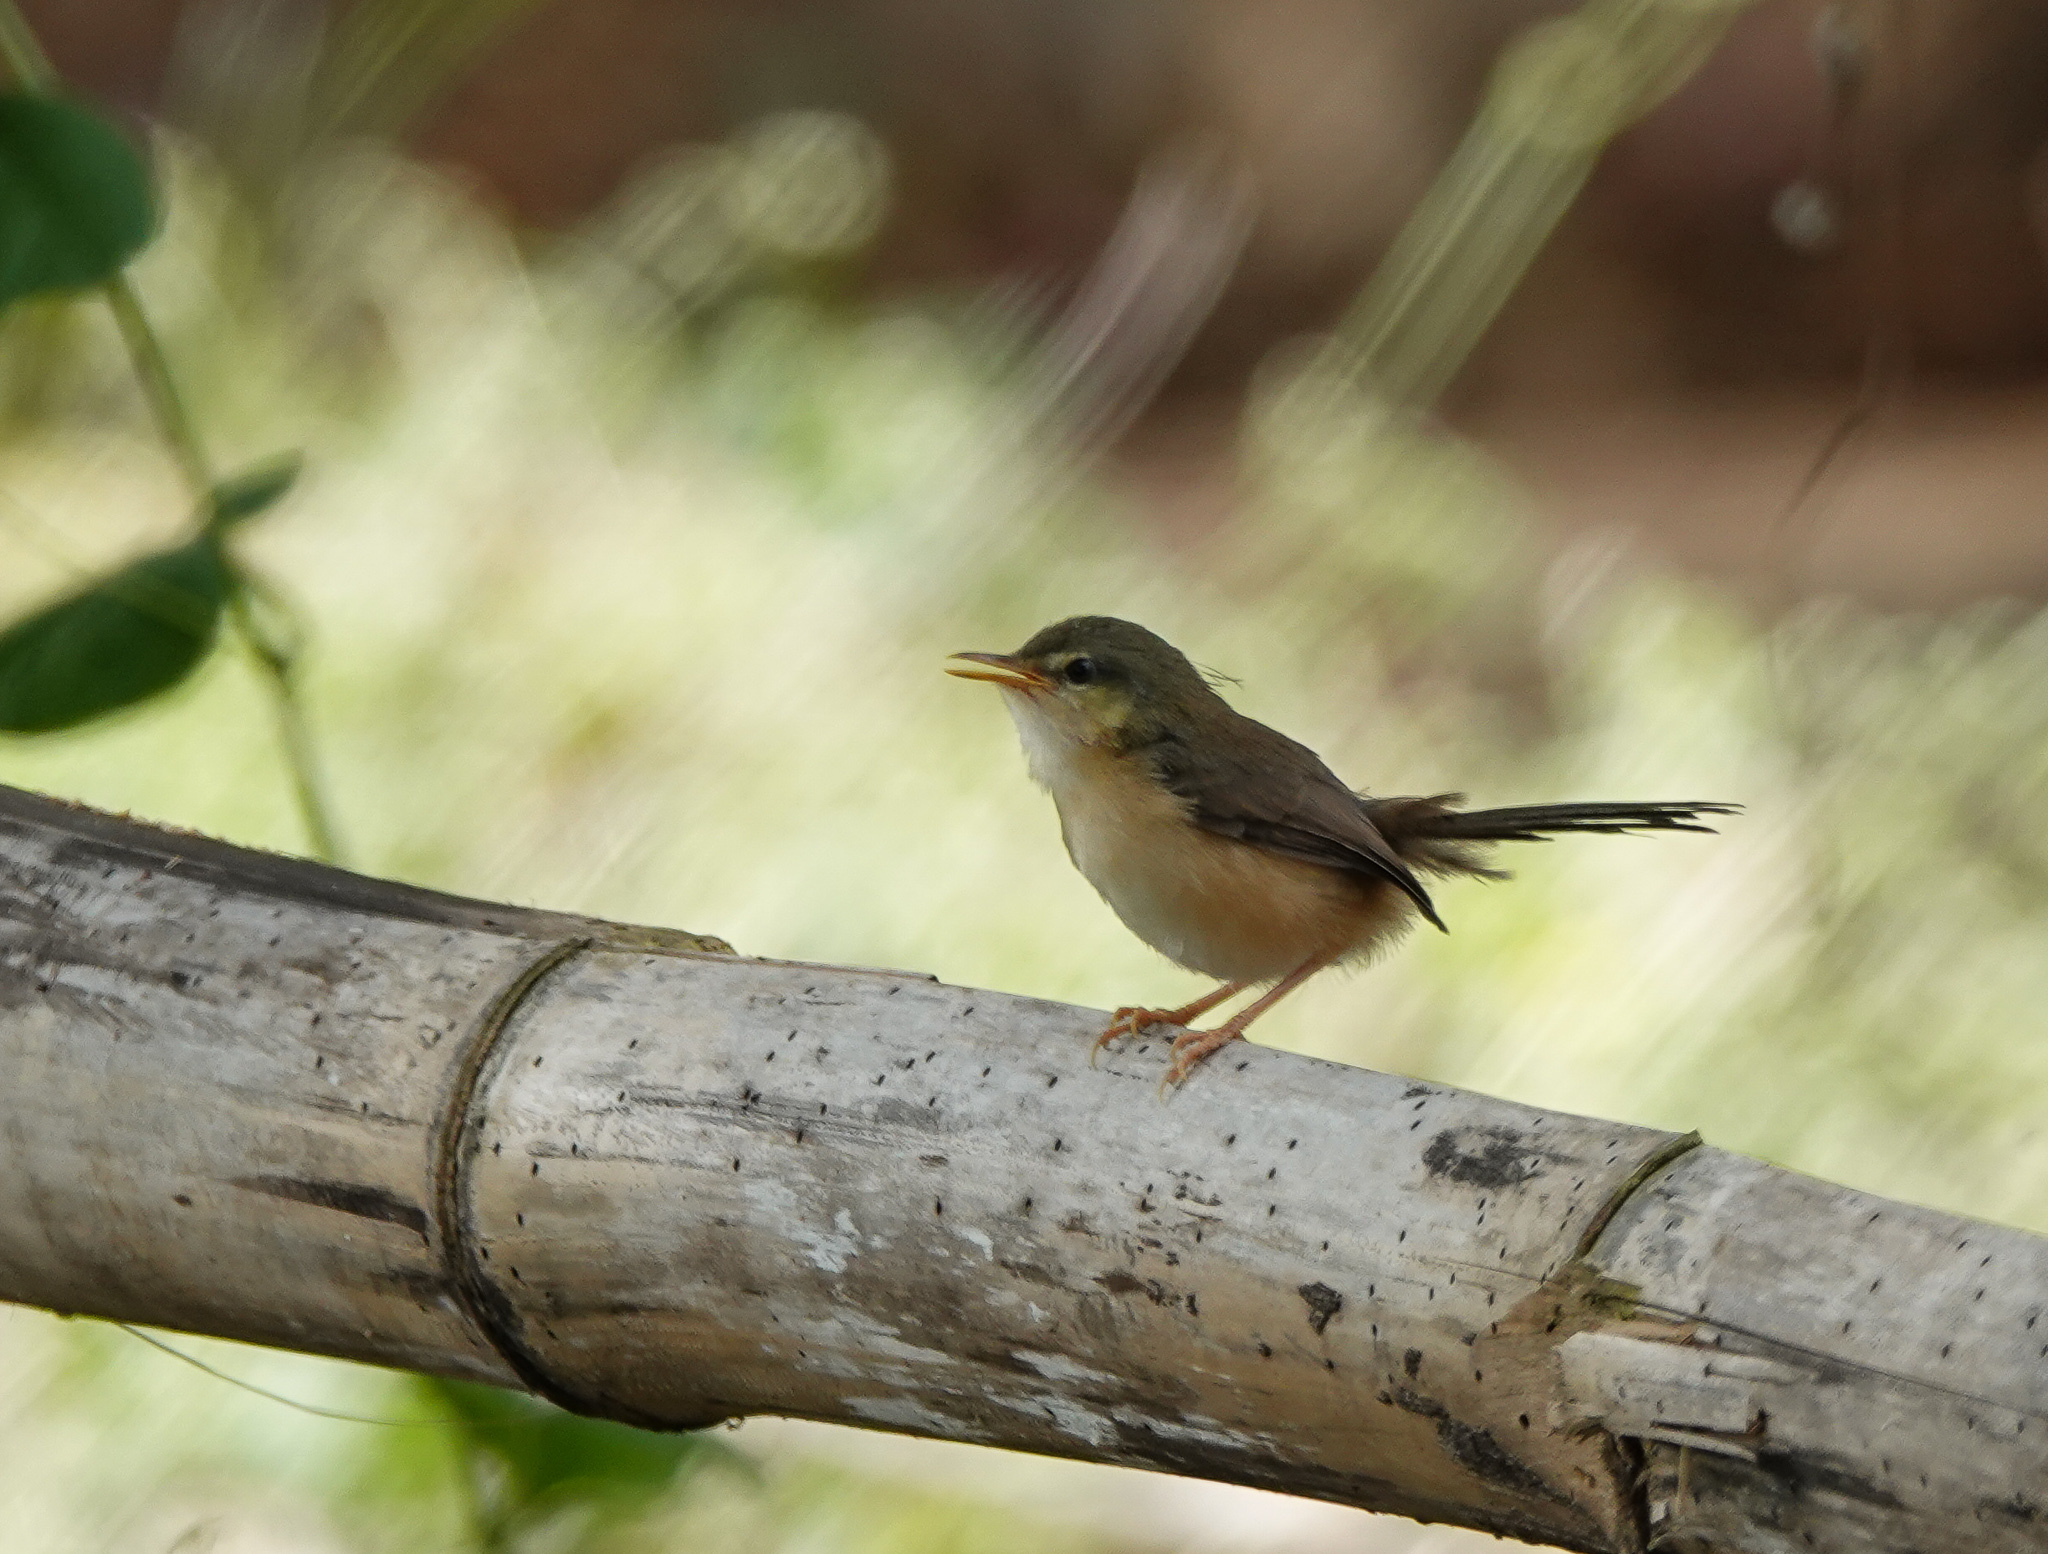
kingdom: Animalia
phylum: Chordata
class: Aves
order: Passeriformes
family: Cisticolidae
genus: Prinia
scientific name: Prinia socialis
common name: Ashy prinia
